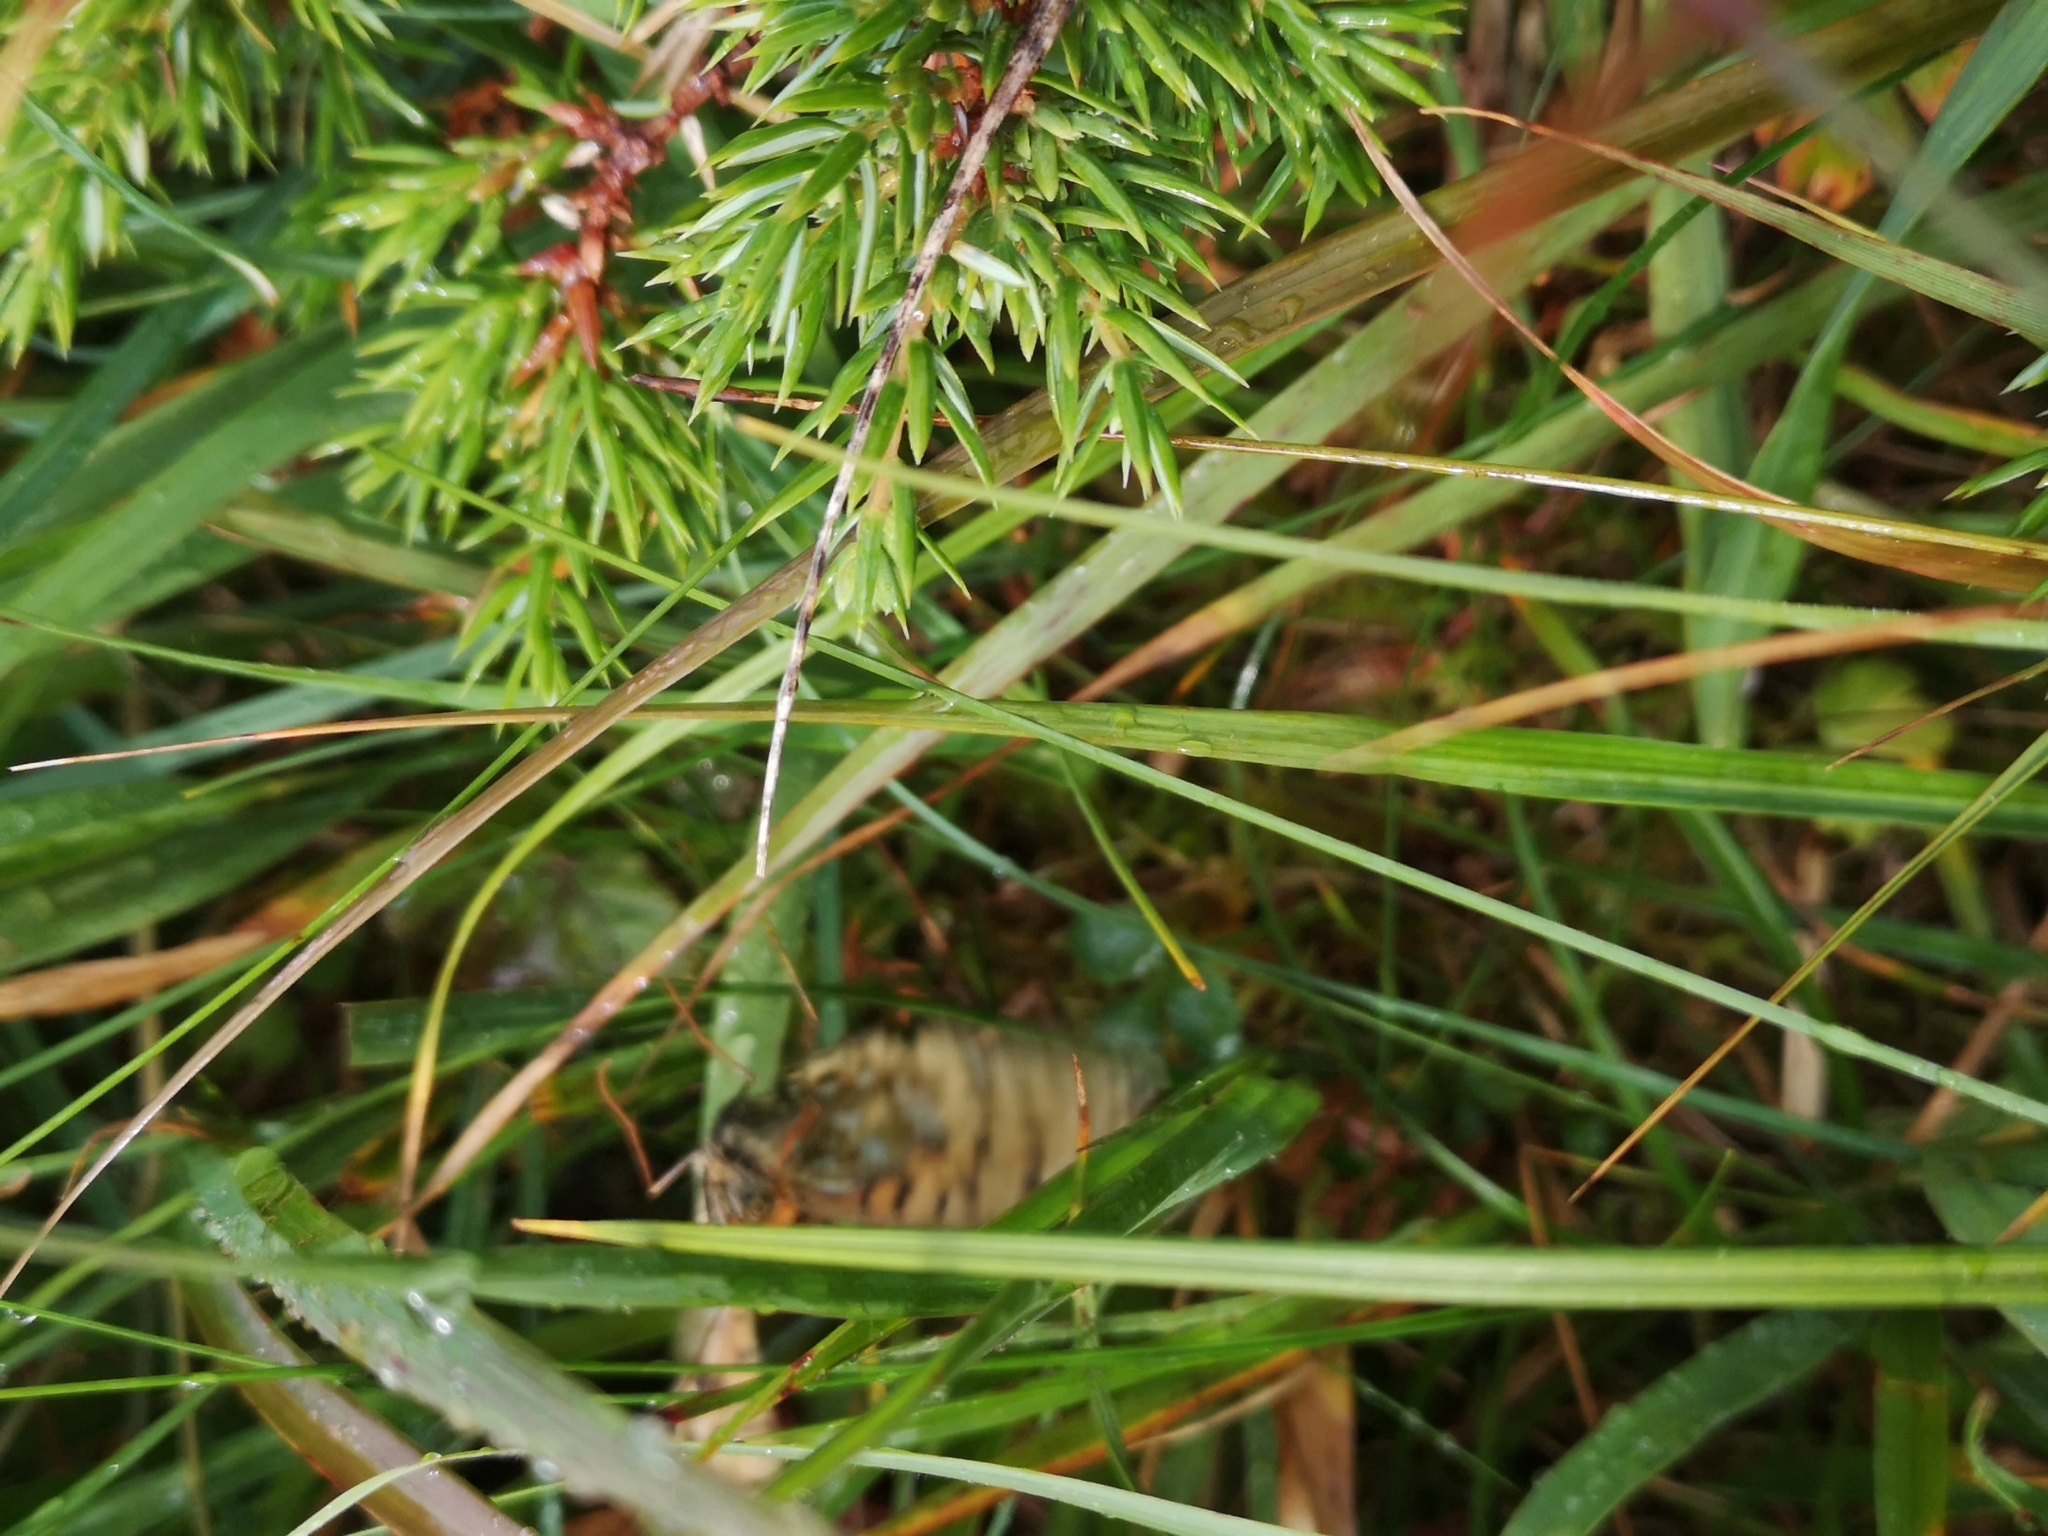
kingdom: Animalia
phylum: Arthropoda
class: Insecta
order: Lepidoptera
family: Nymphalidae
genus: Speyeria
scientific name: Speyeria aglaja
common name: Dark green fritillary
